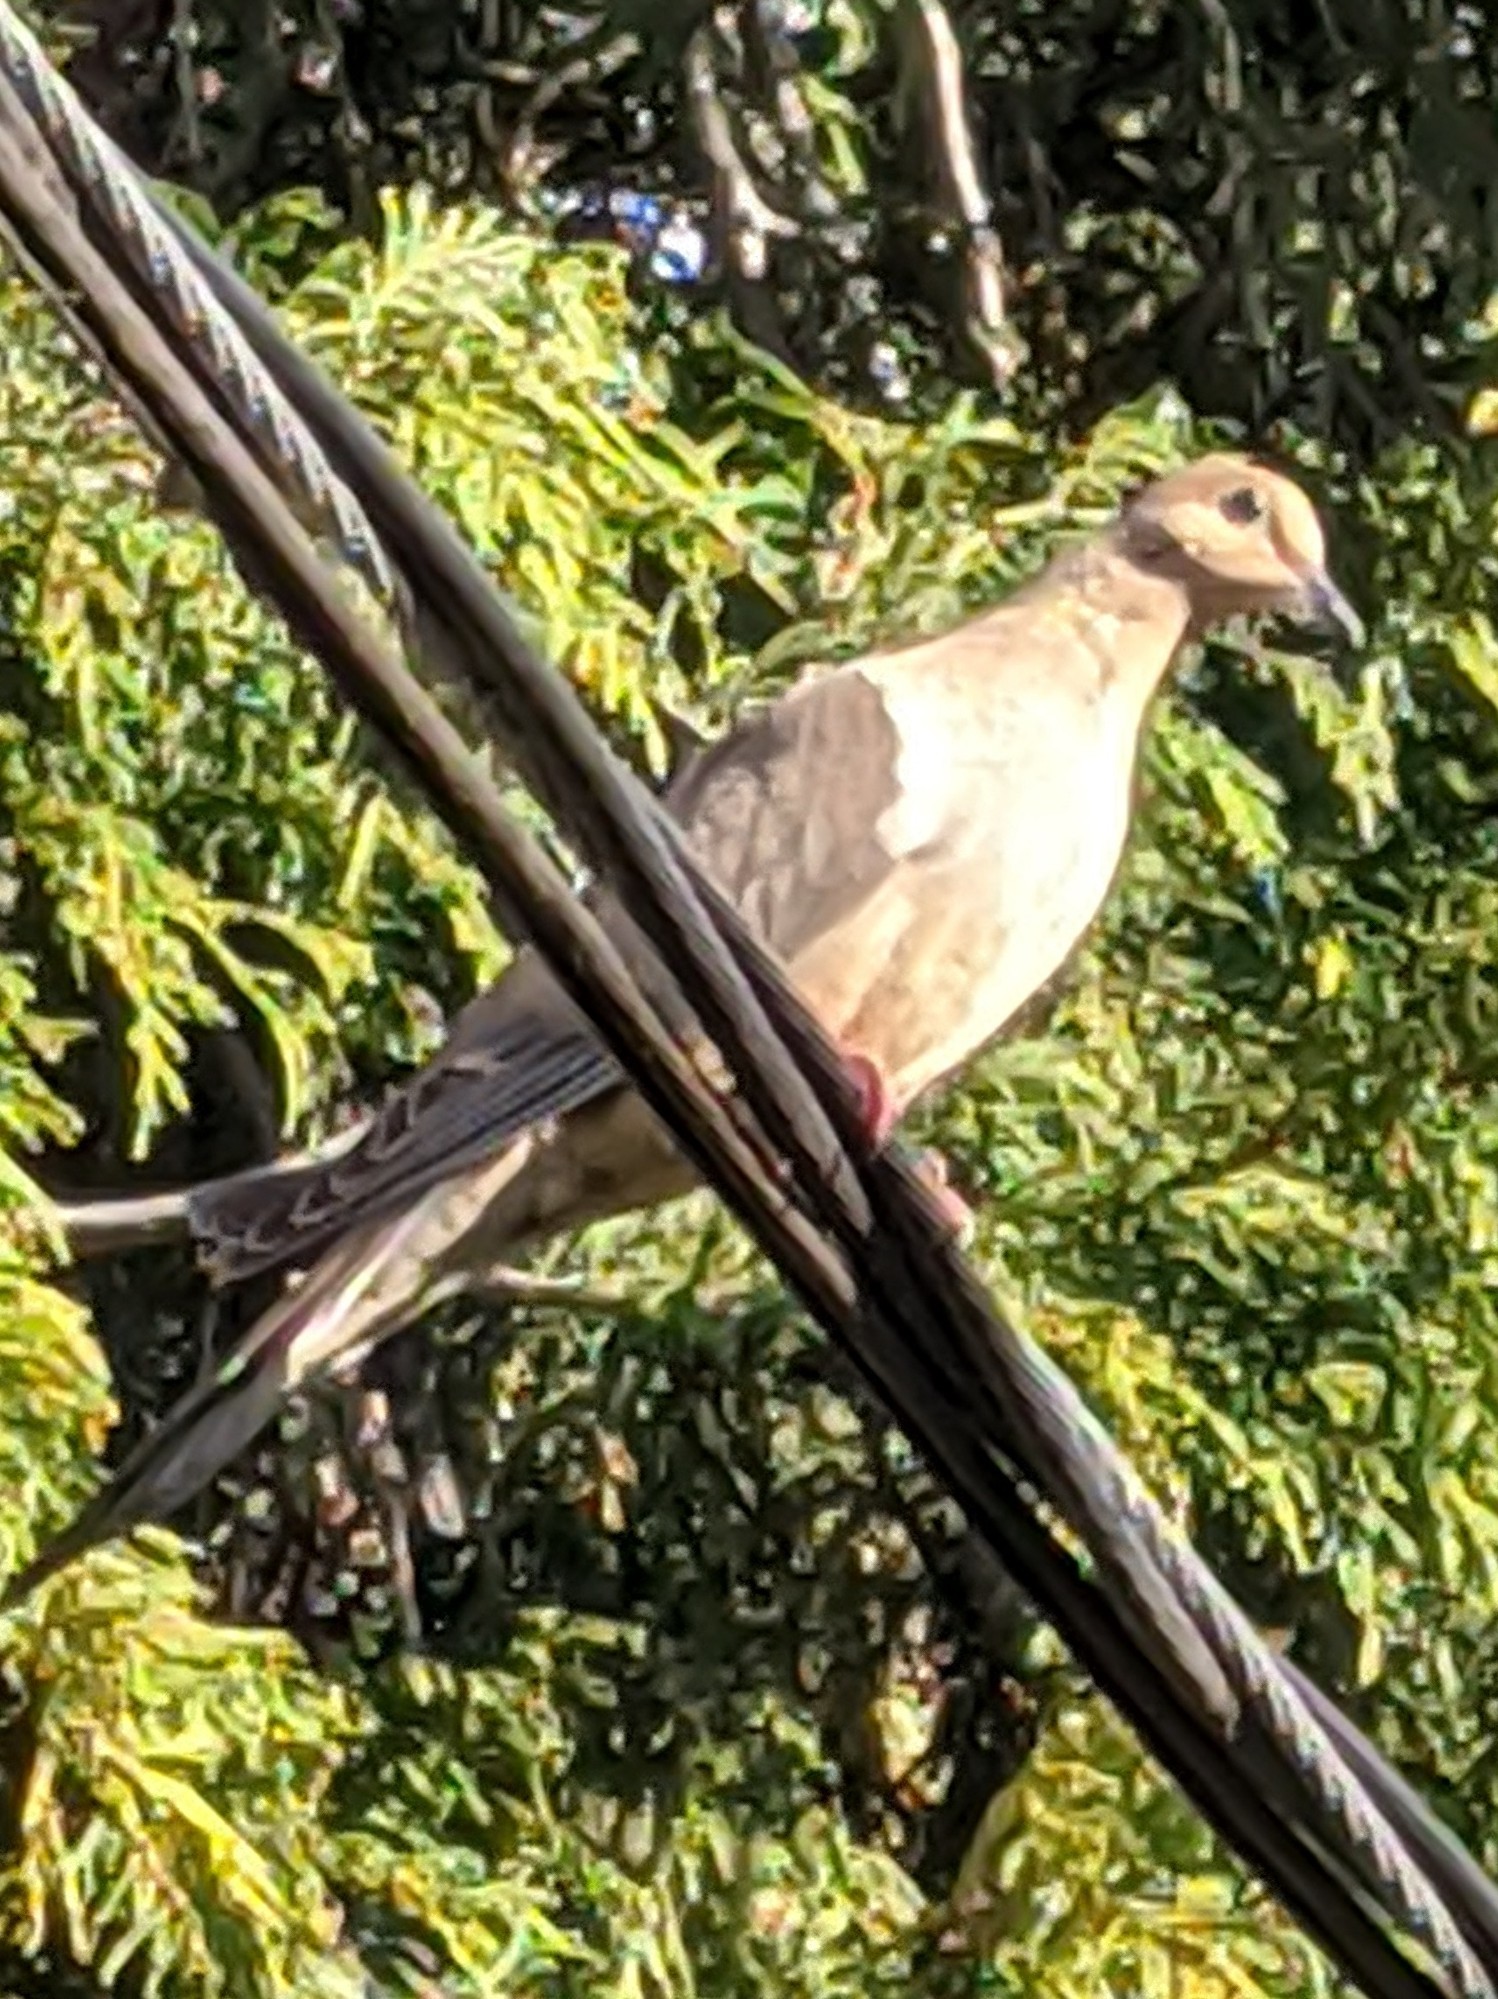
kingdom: Animalia
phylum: Chordata
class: Aves
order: Columbiformes
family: Columbidae
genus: Zenaida
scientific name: Zenaida macroura
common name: Mourning dove
